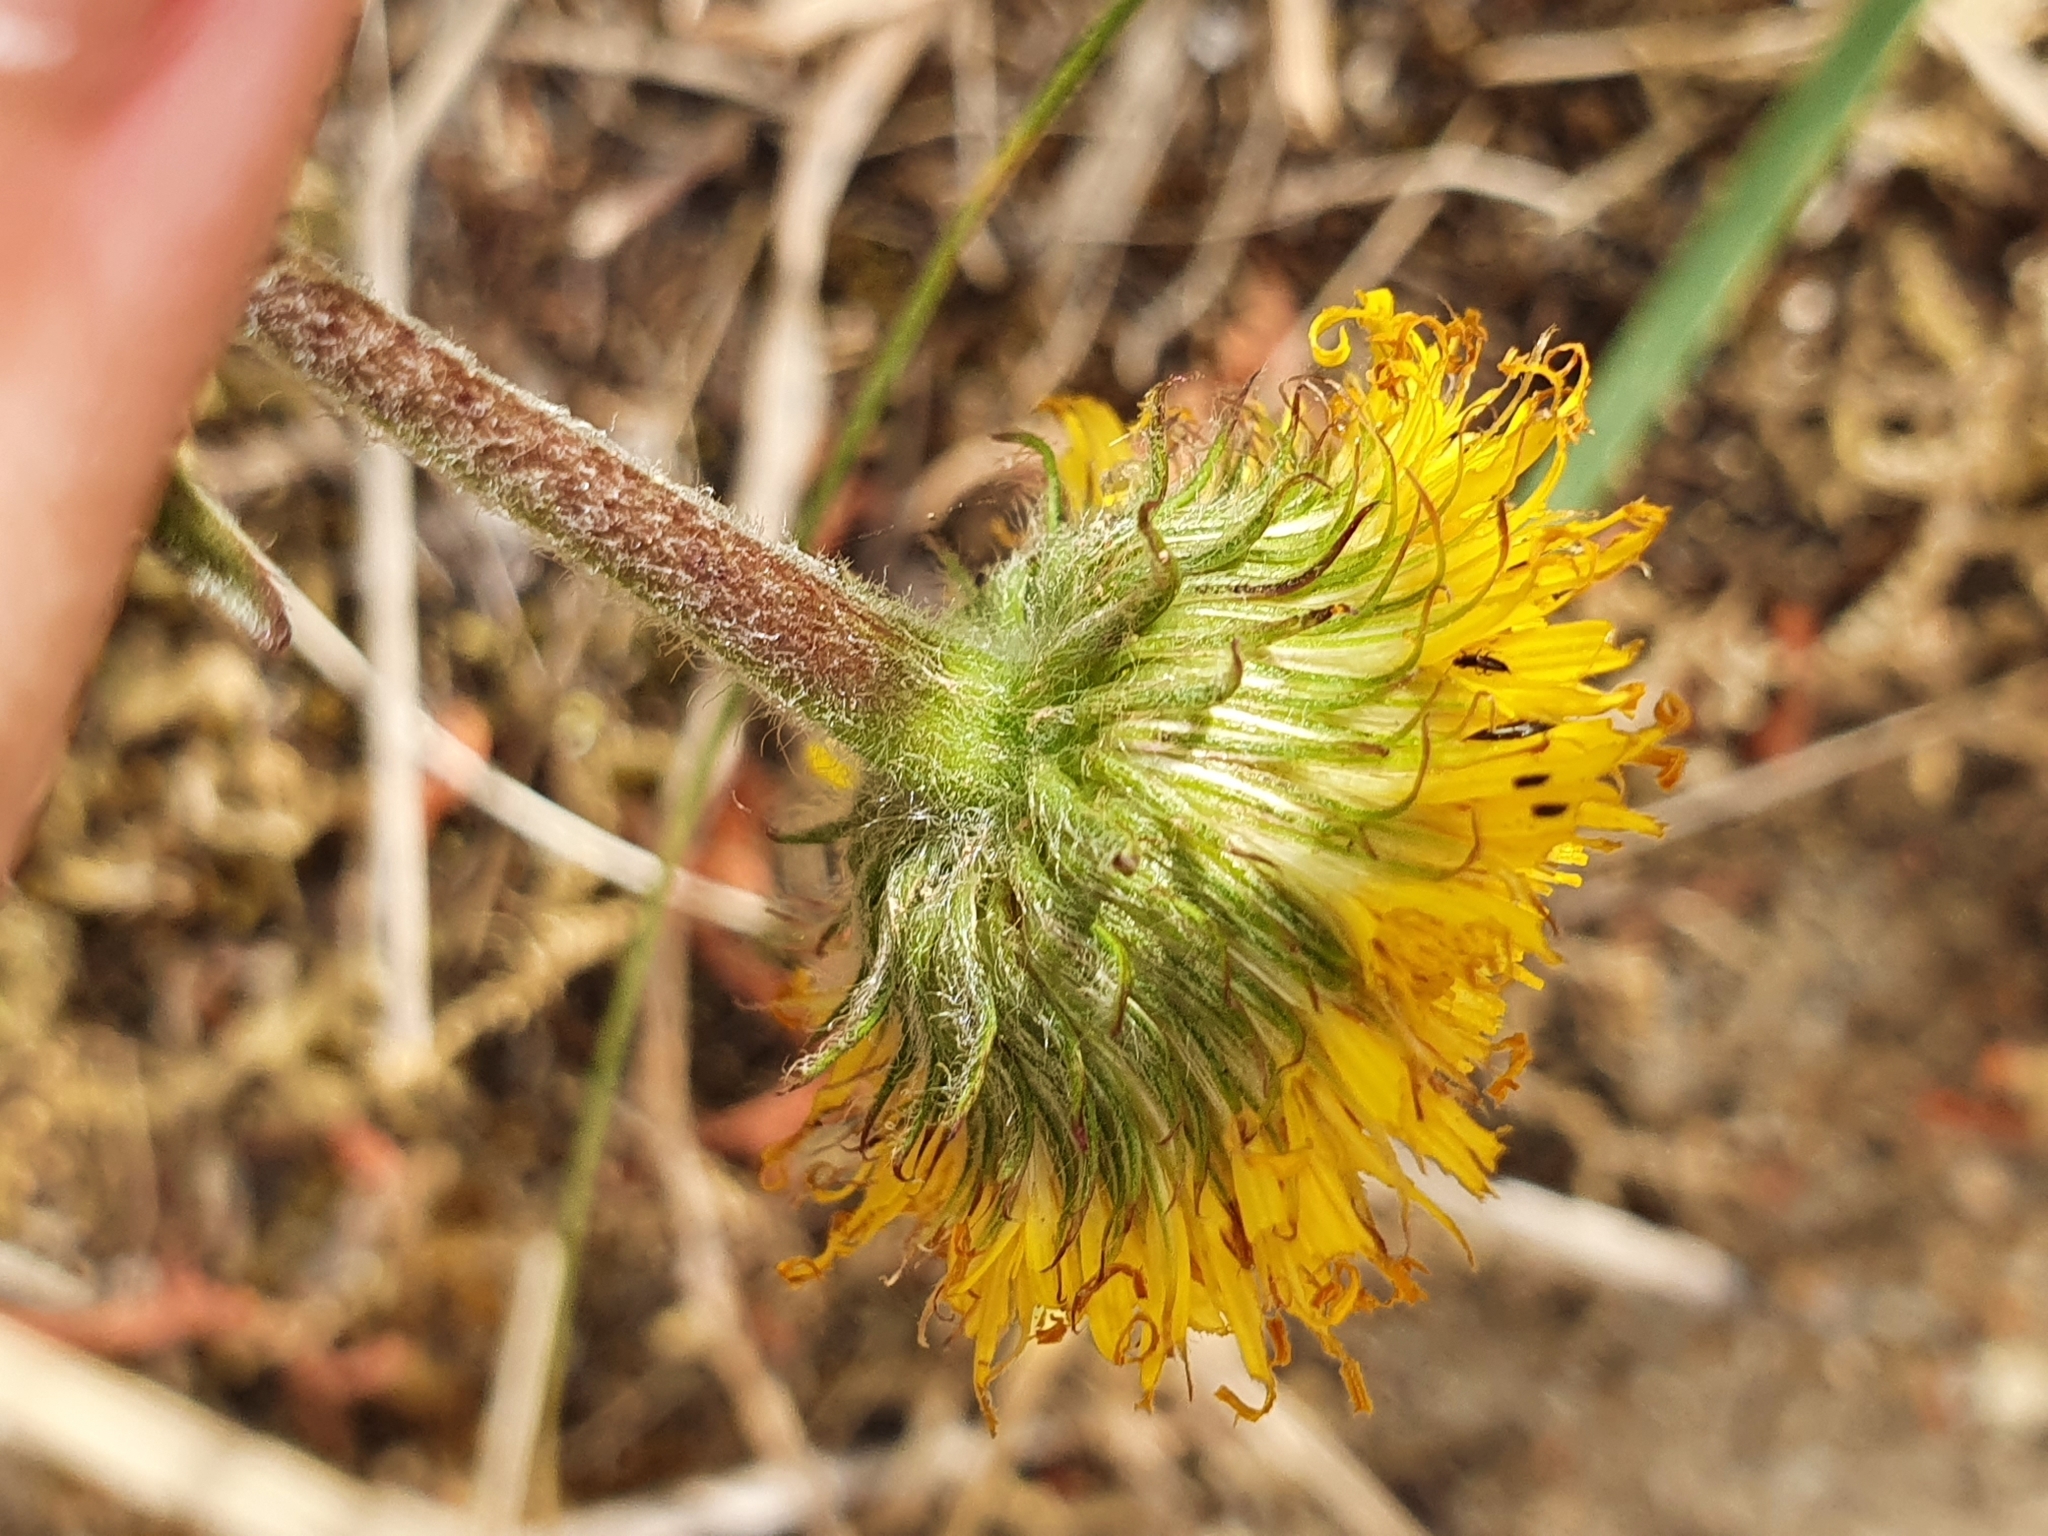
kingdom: Plantae
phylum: Tracheophyta
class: Magnoliopsida
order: Asterales
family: Asteraceae
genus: Pulicaria
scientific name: Pulicaria odora
